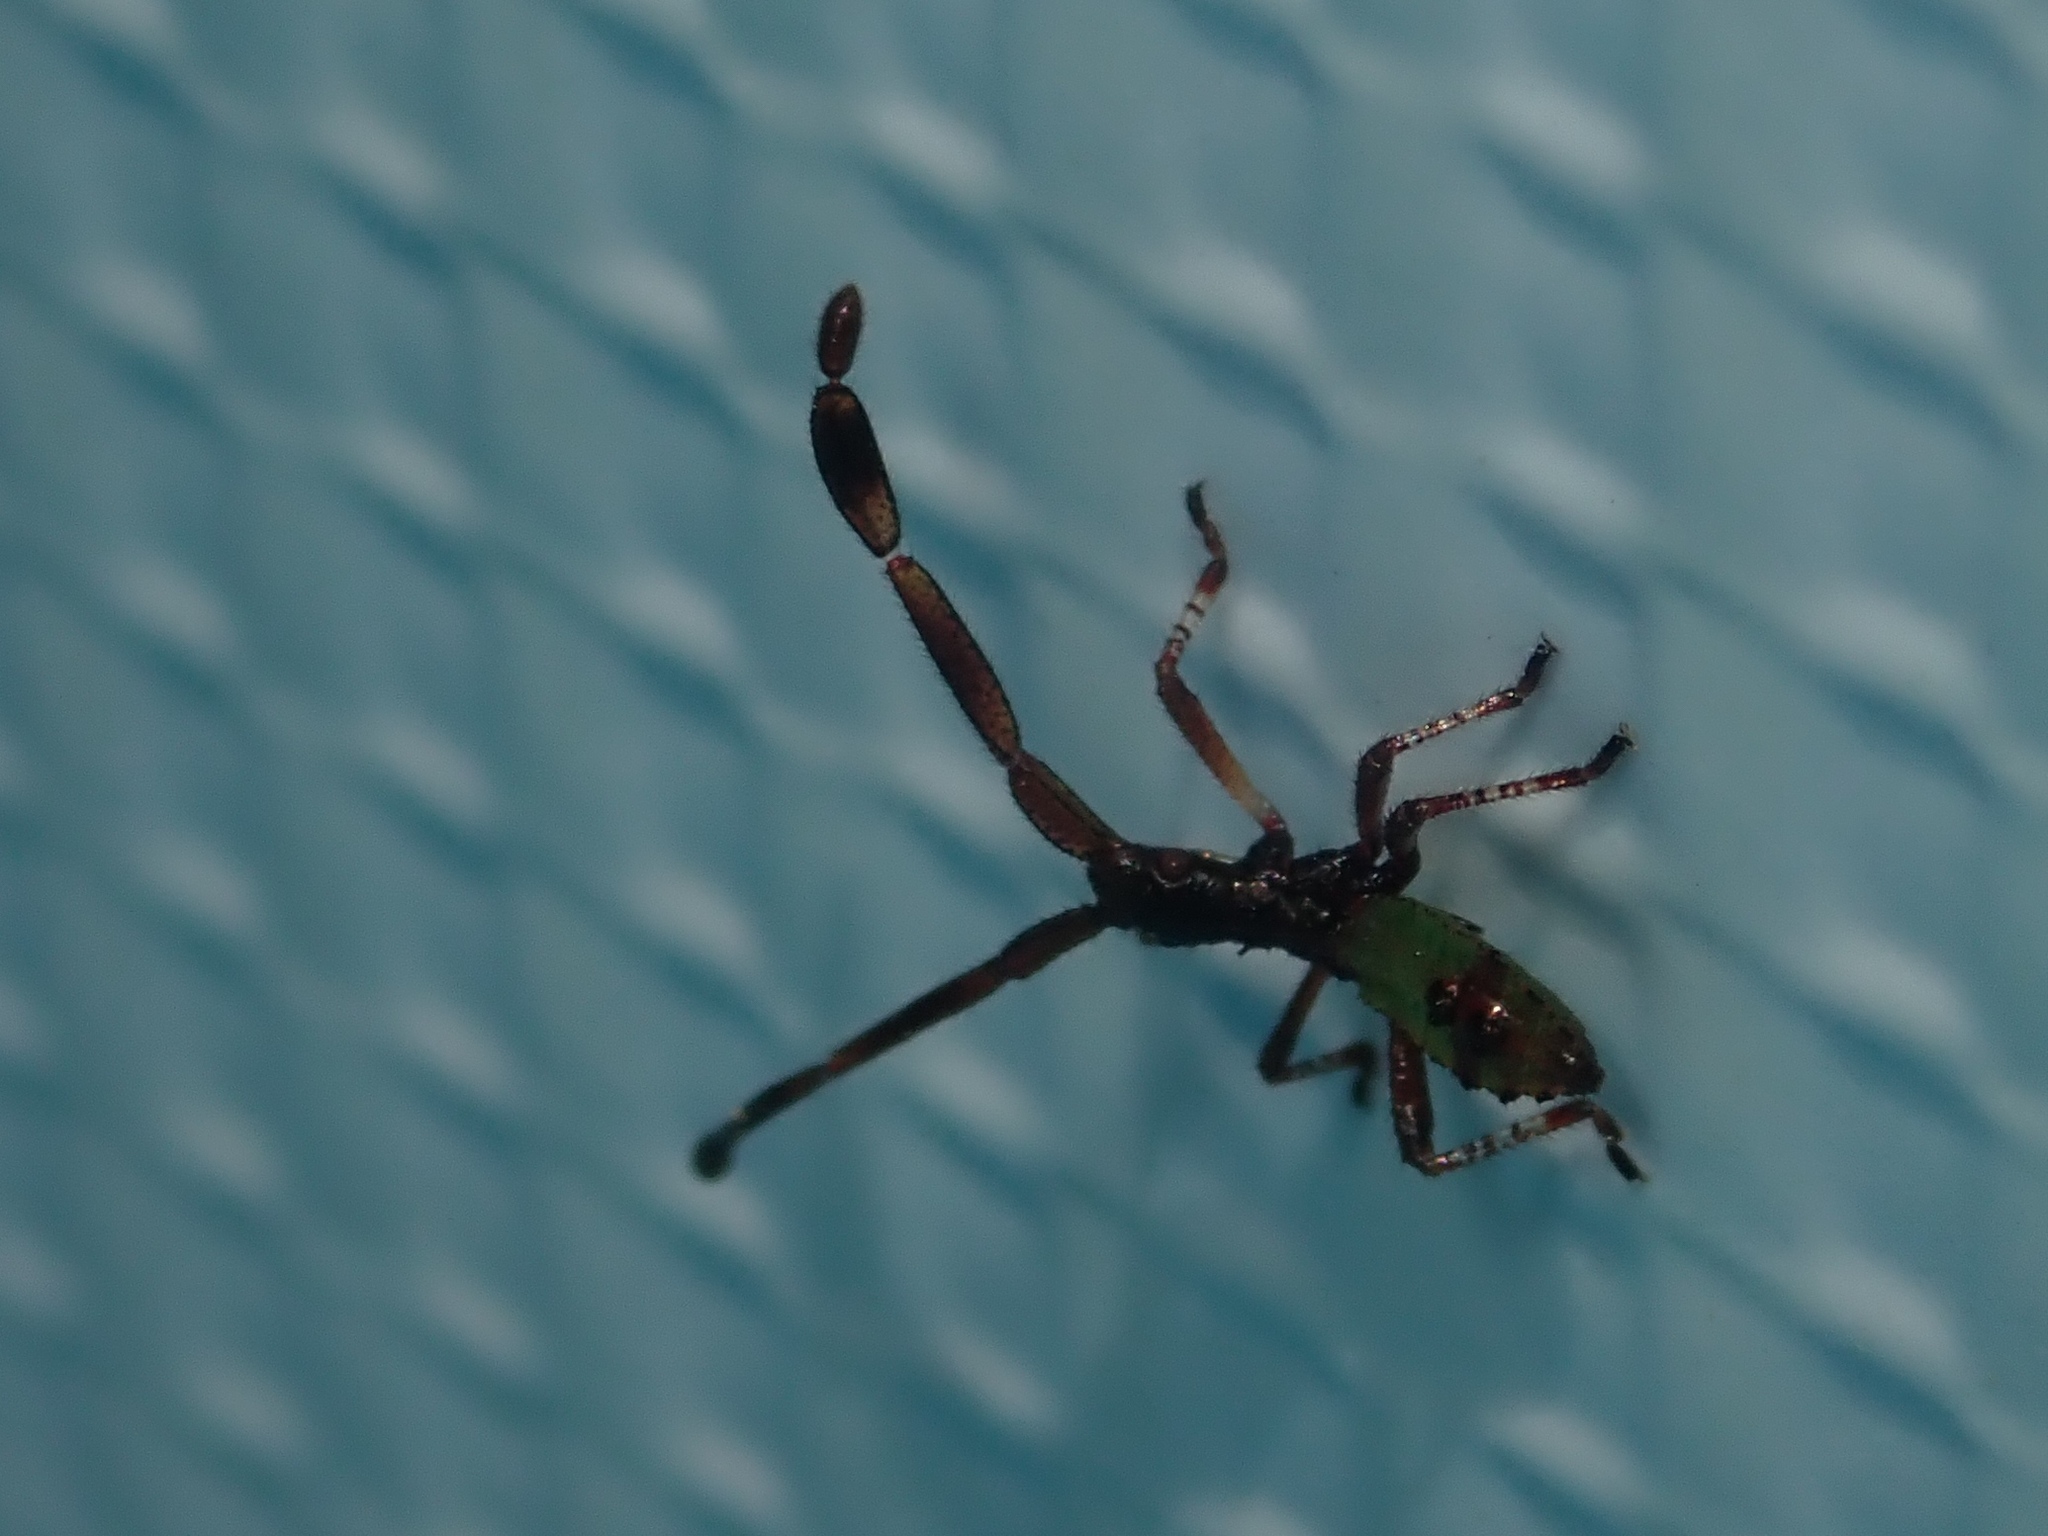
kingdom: Animalia
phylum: Arthropoda
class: Insecta
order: Hemiptera
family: Coreidae
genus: Gonocerus
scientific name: Gonocerus acuteangulatus
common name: Box bug
